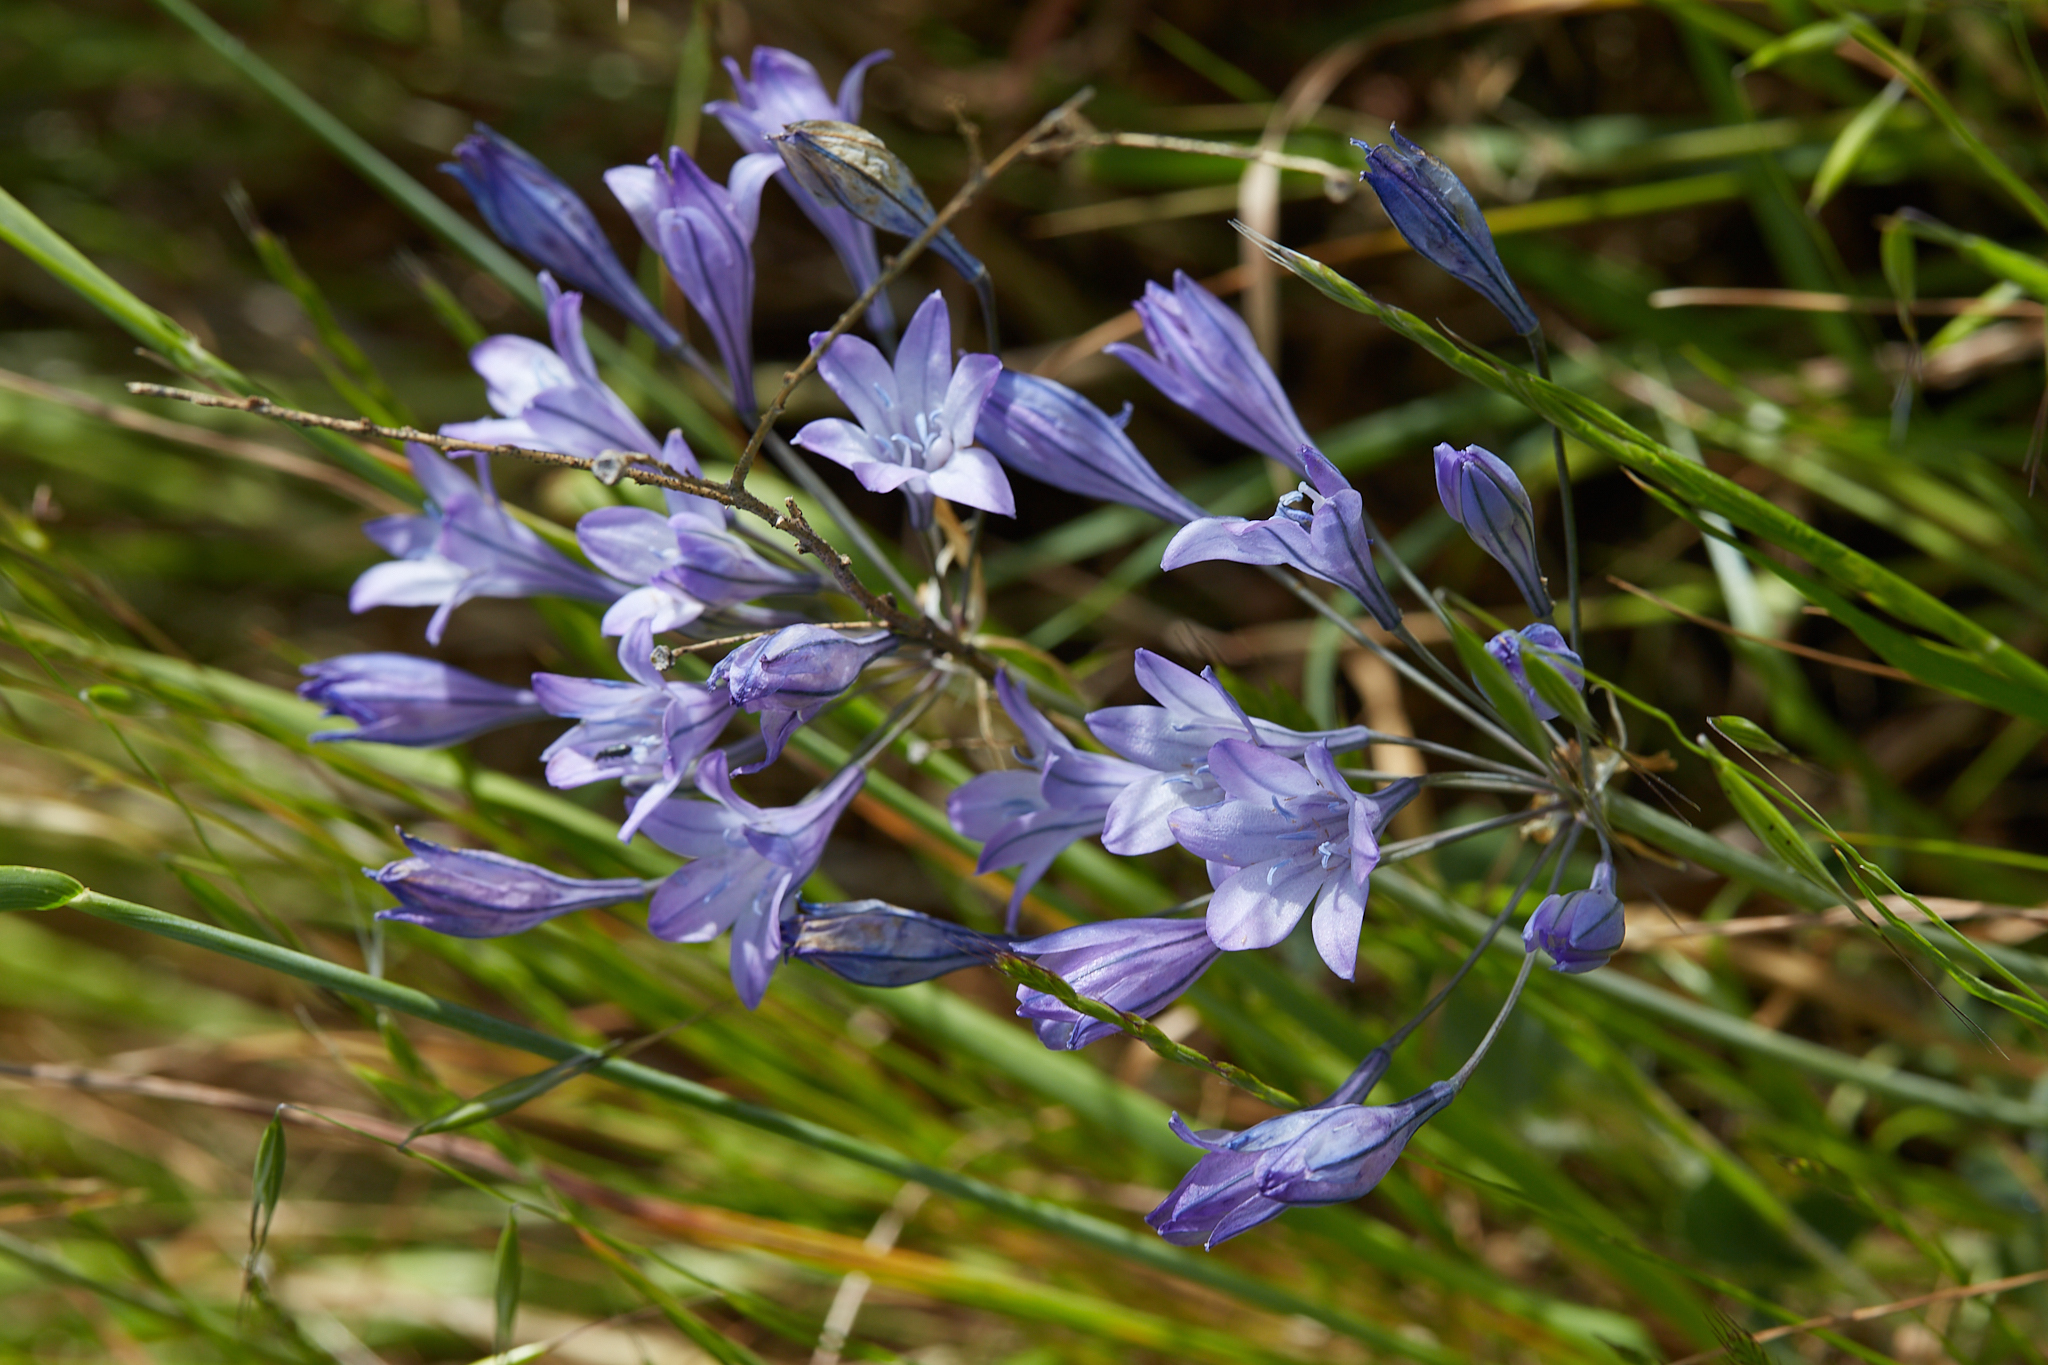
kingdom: Plantae
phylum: Tracheophyta
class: Liliopsida
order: Asparagales
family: Asparagaceae
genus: Triteleia
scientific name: Triteleia laxa
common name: Triplet-lily
